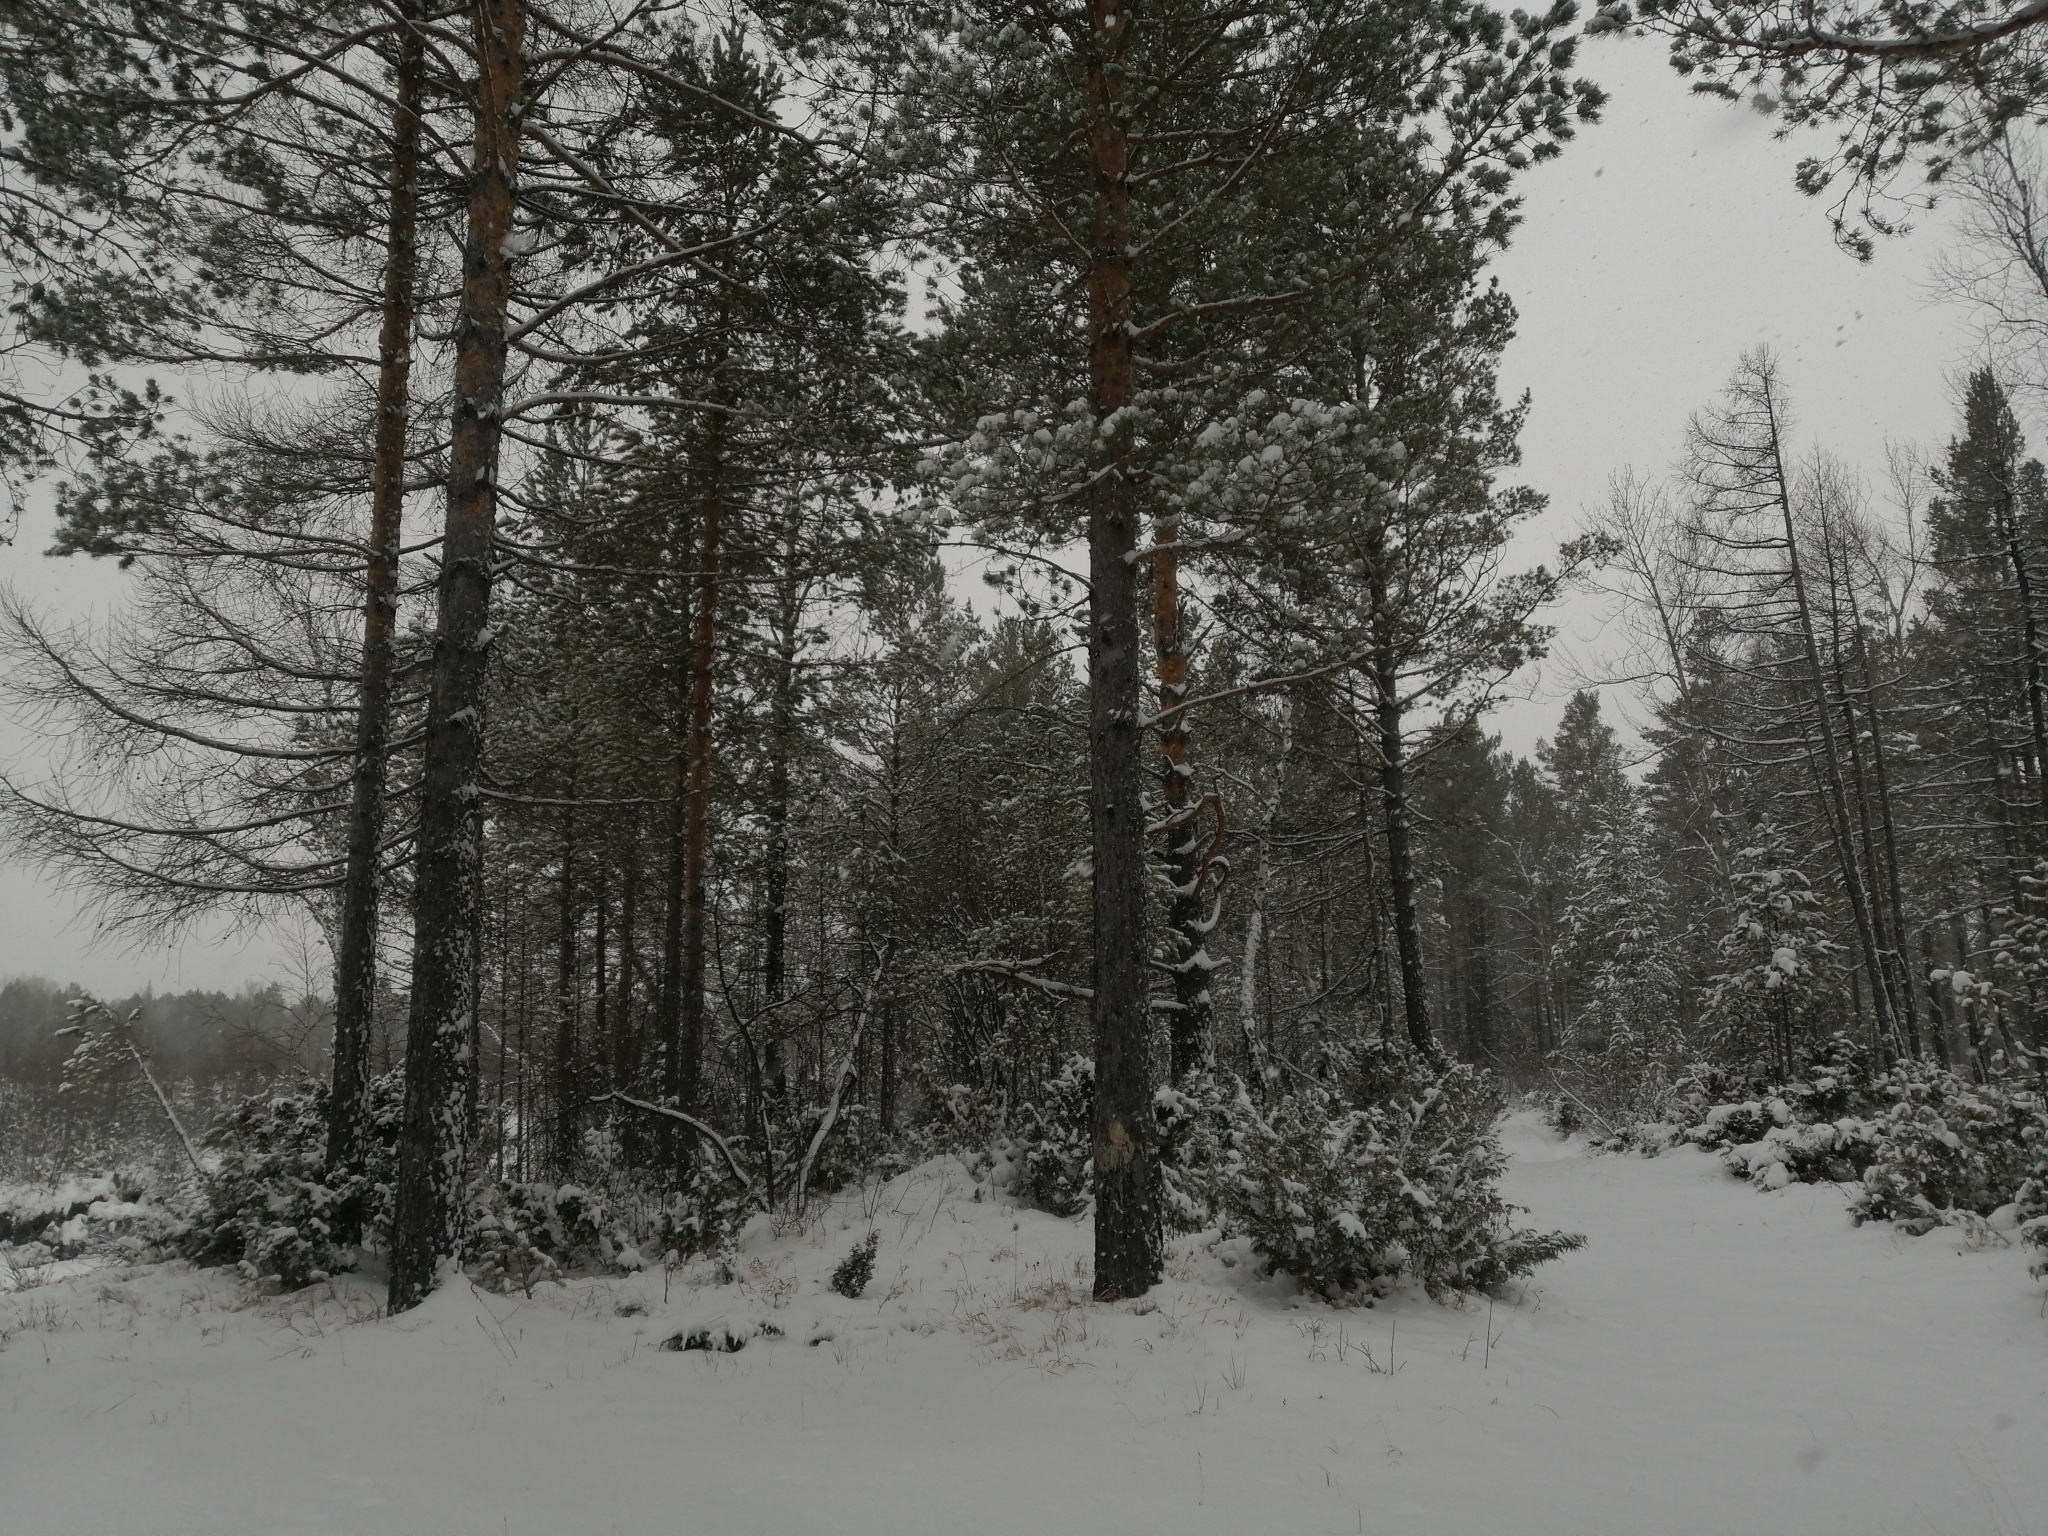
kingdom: Plantae
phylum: Tracheophyta
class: Pinopsida
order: Pinales
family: Pinaceae
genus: Pinus
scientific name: Pinus sylvestris
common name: Scots pine
